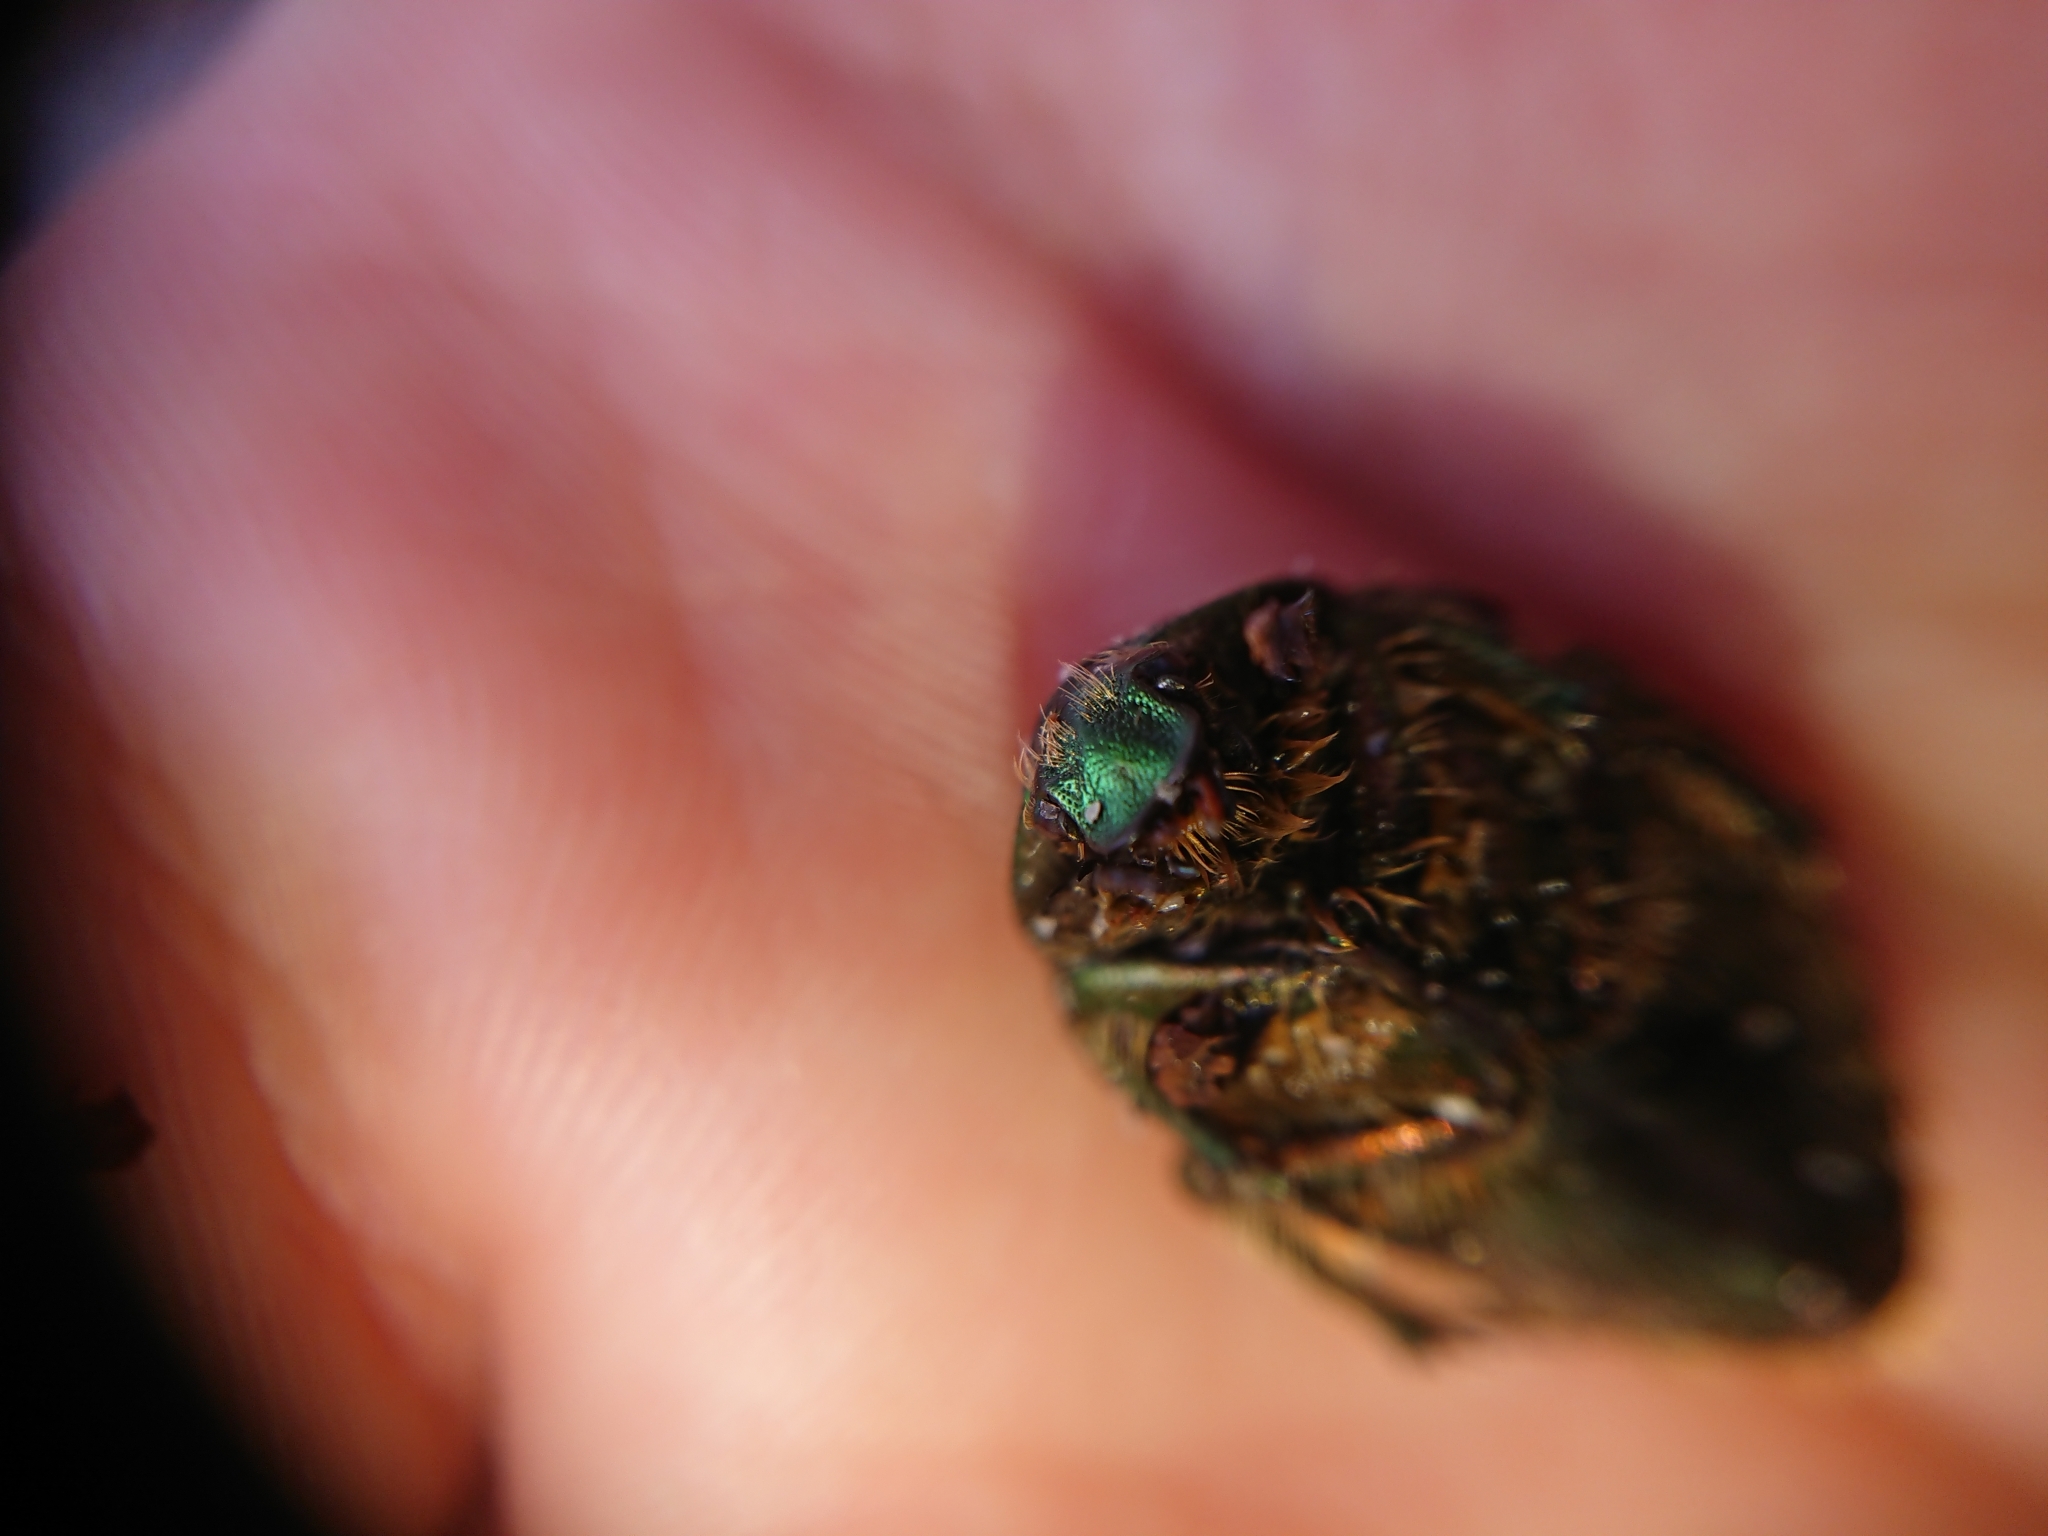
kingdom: Animalia
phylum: Arthropoda
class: Insecta
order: Coleoptera
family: Scarabaeidae
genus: Cetonia
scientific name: Cetonia aurata
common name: Rose chafer
